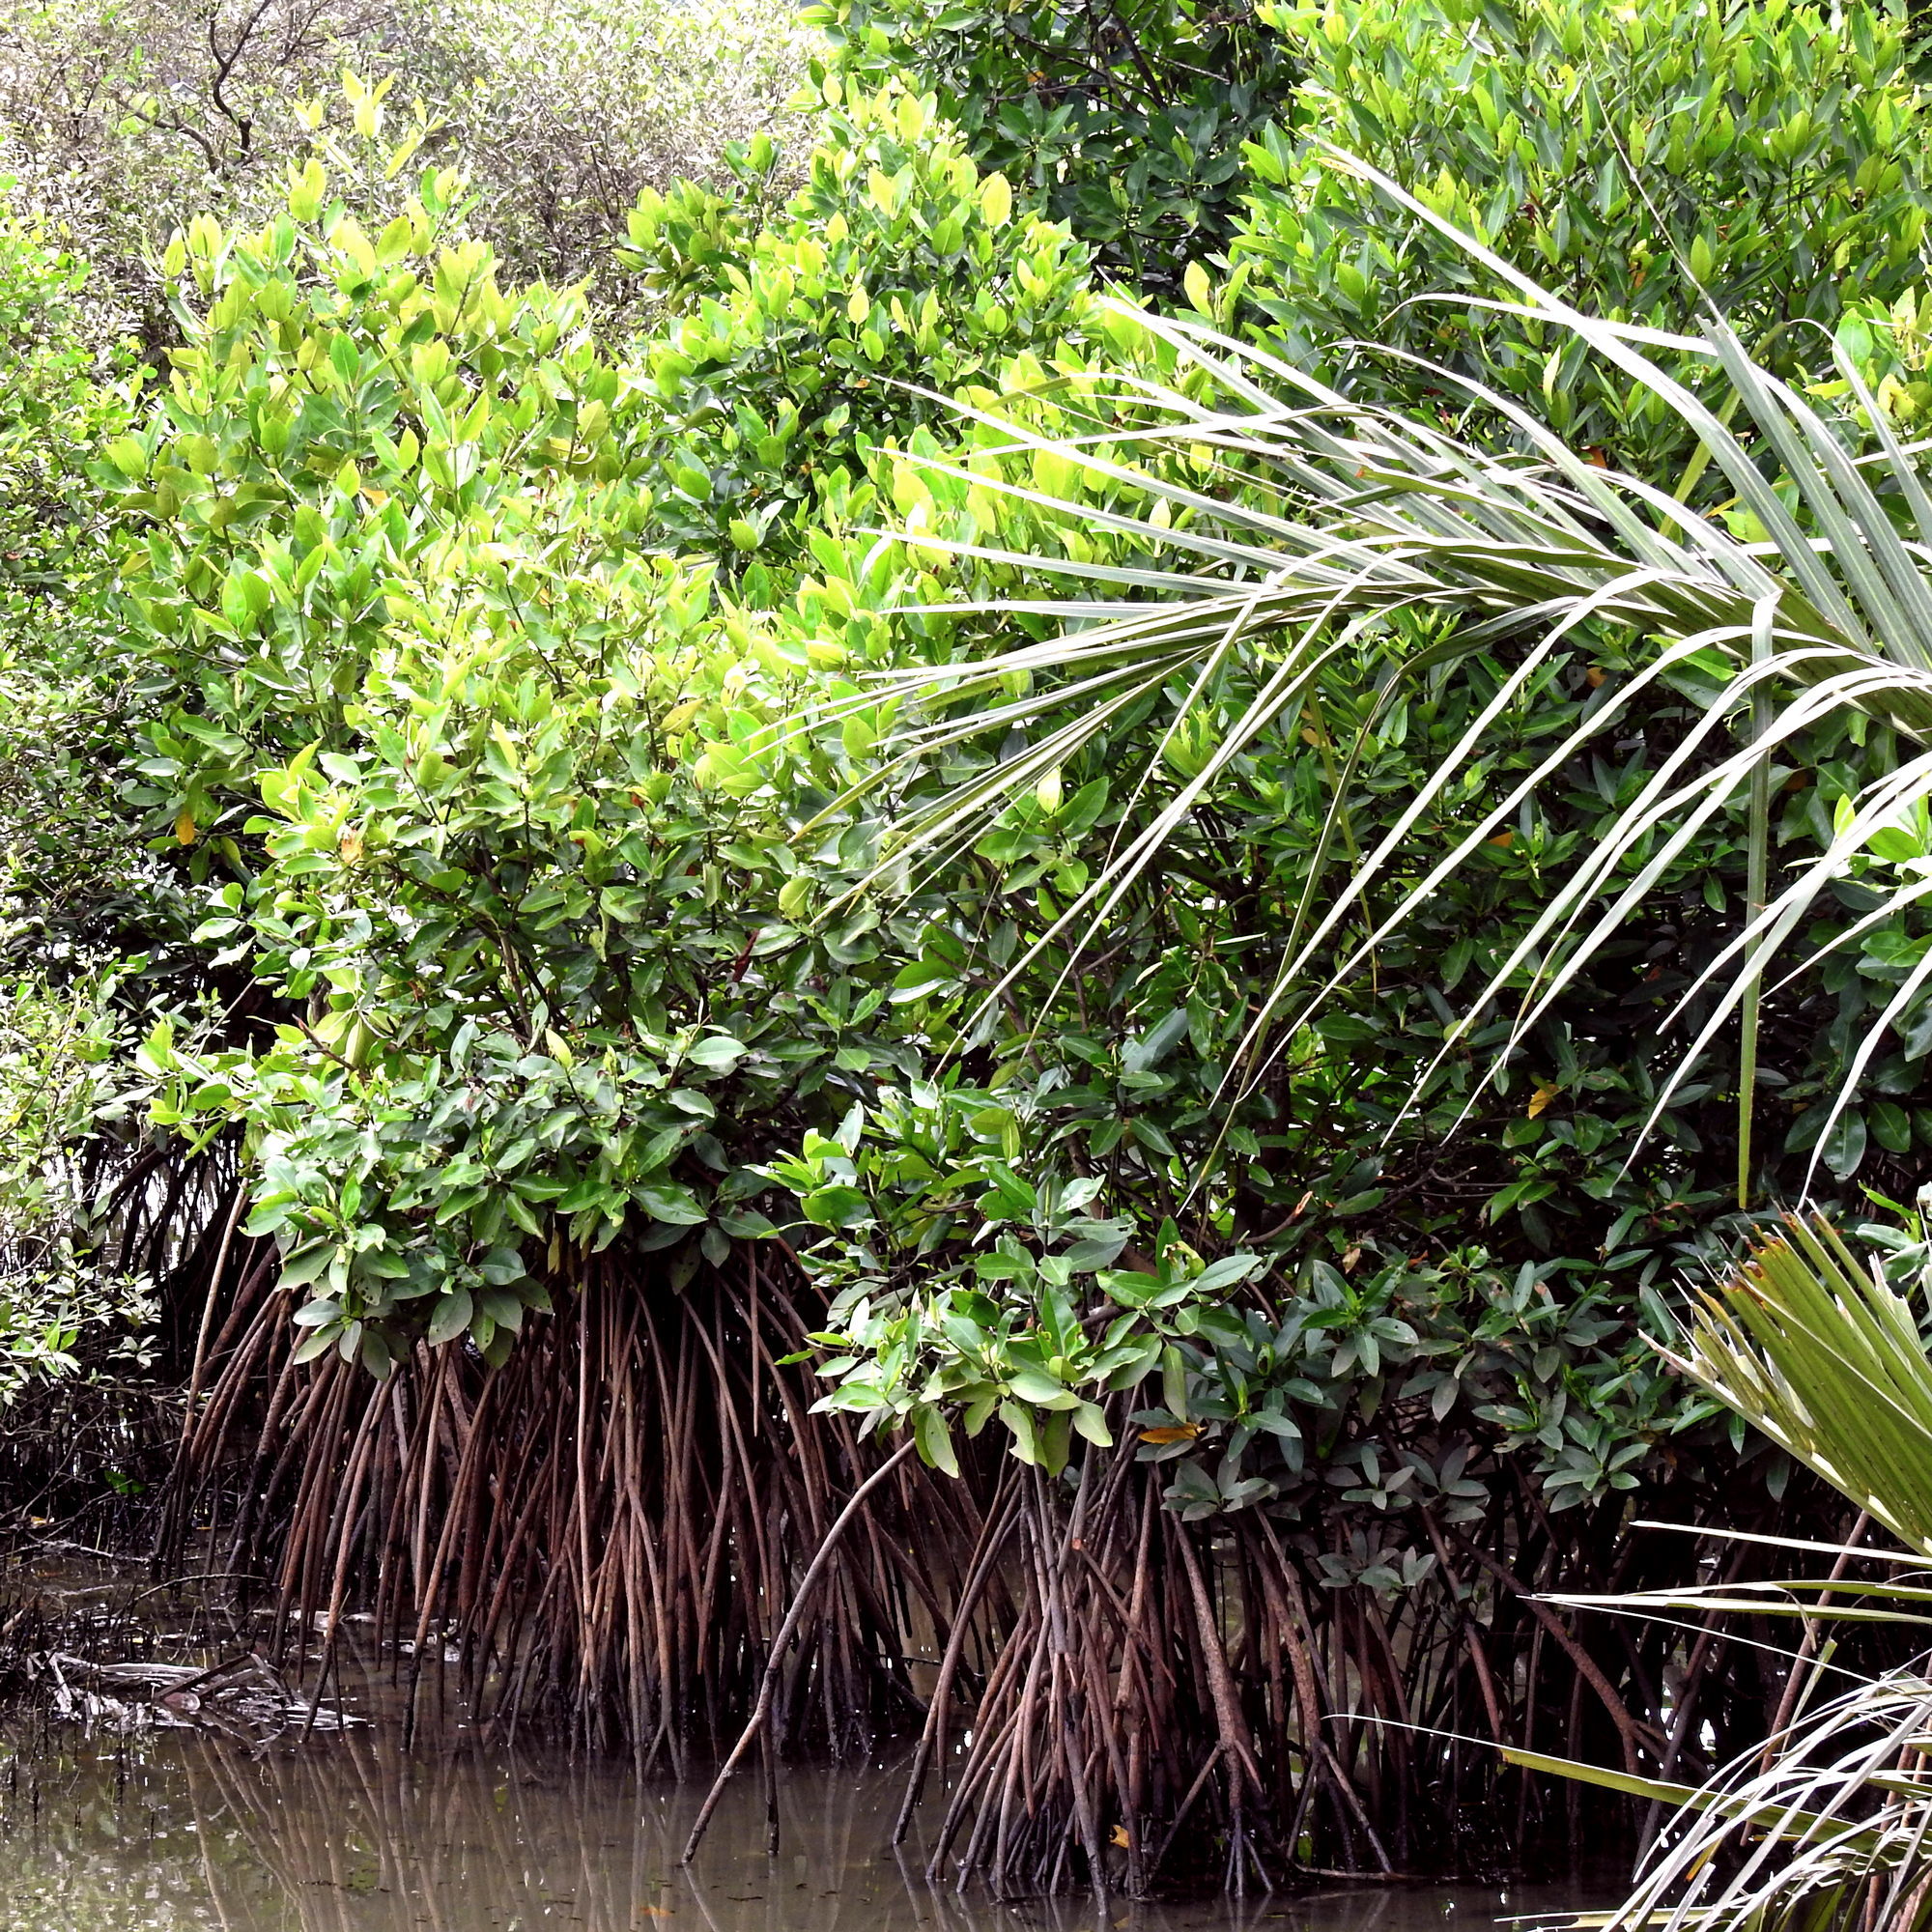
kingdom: Plantae
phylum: Tracheophyta
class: Magnoliopsida
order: Malpighiales
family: Rhizophoraceae
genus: Rhizophora
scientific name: Rhizophora stylosa
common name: Red mangrove
